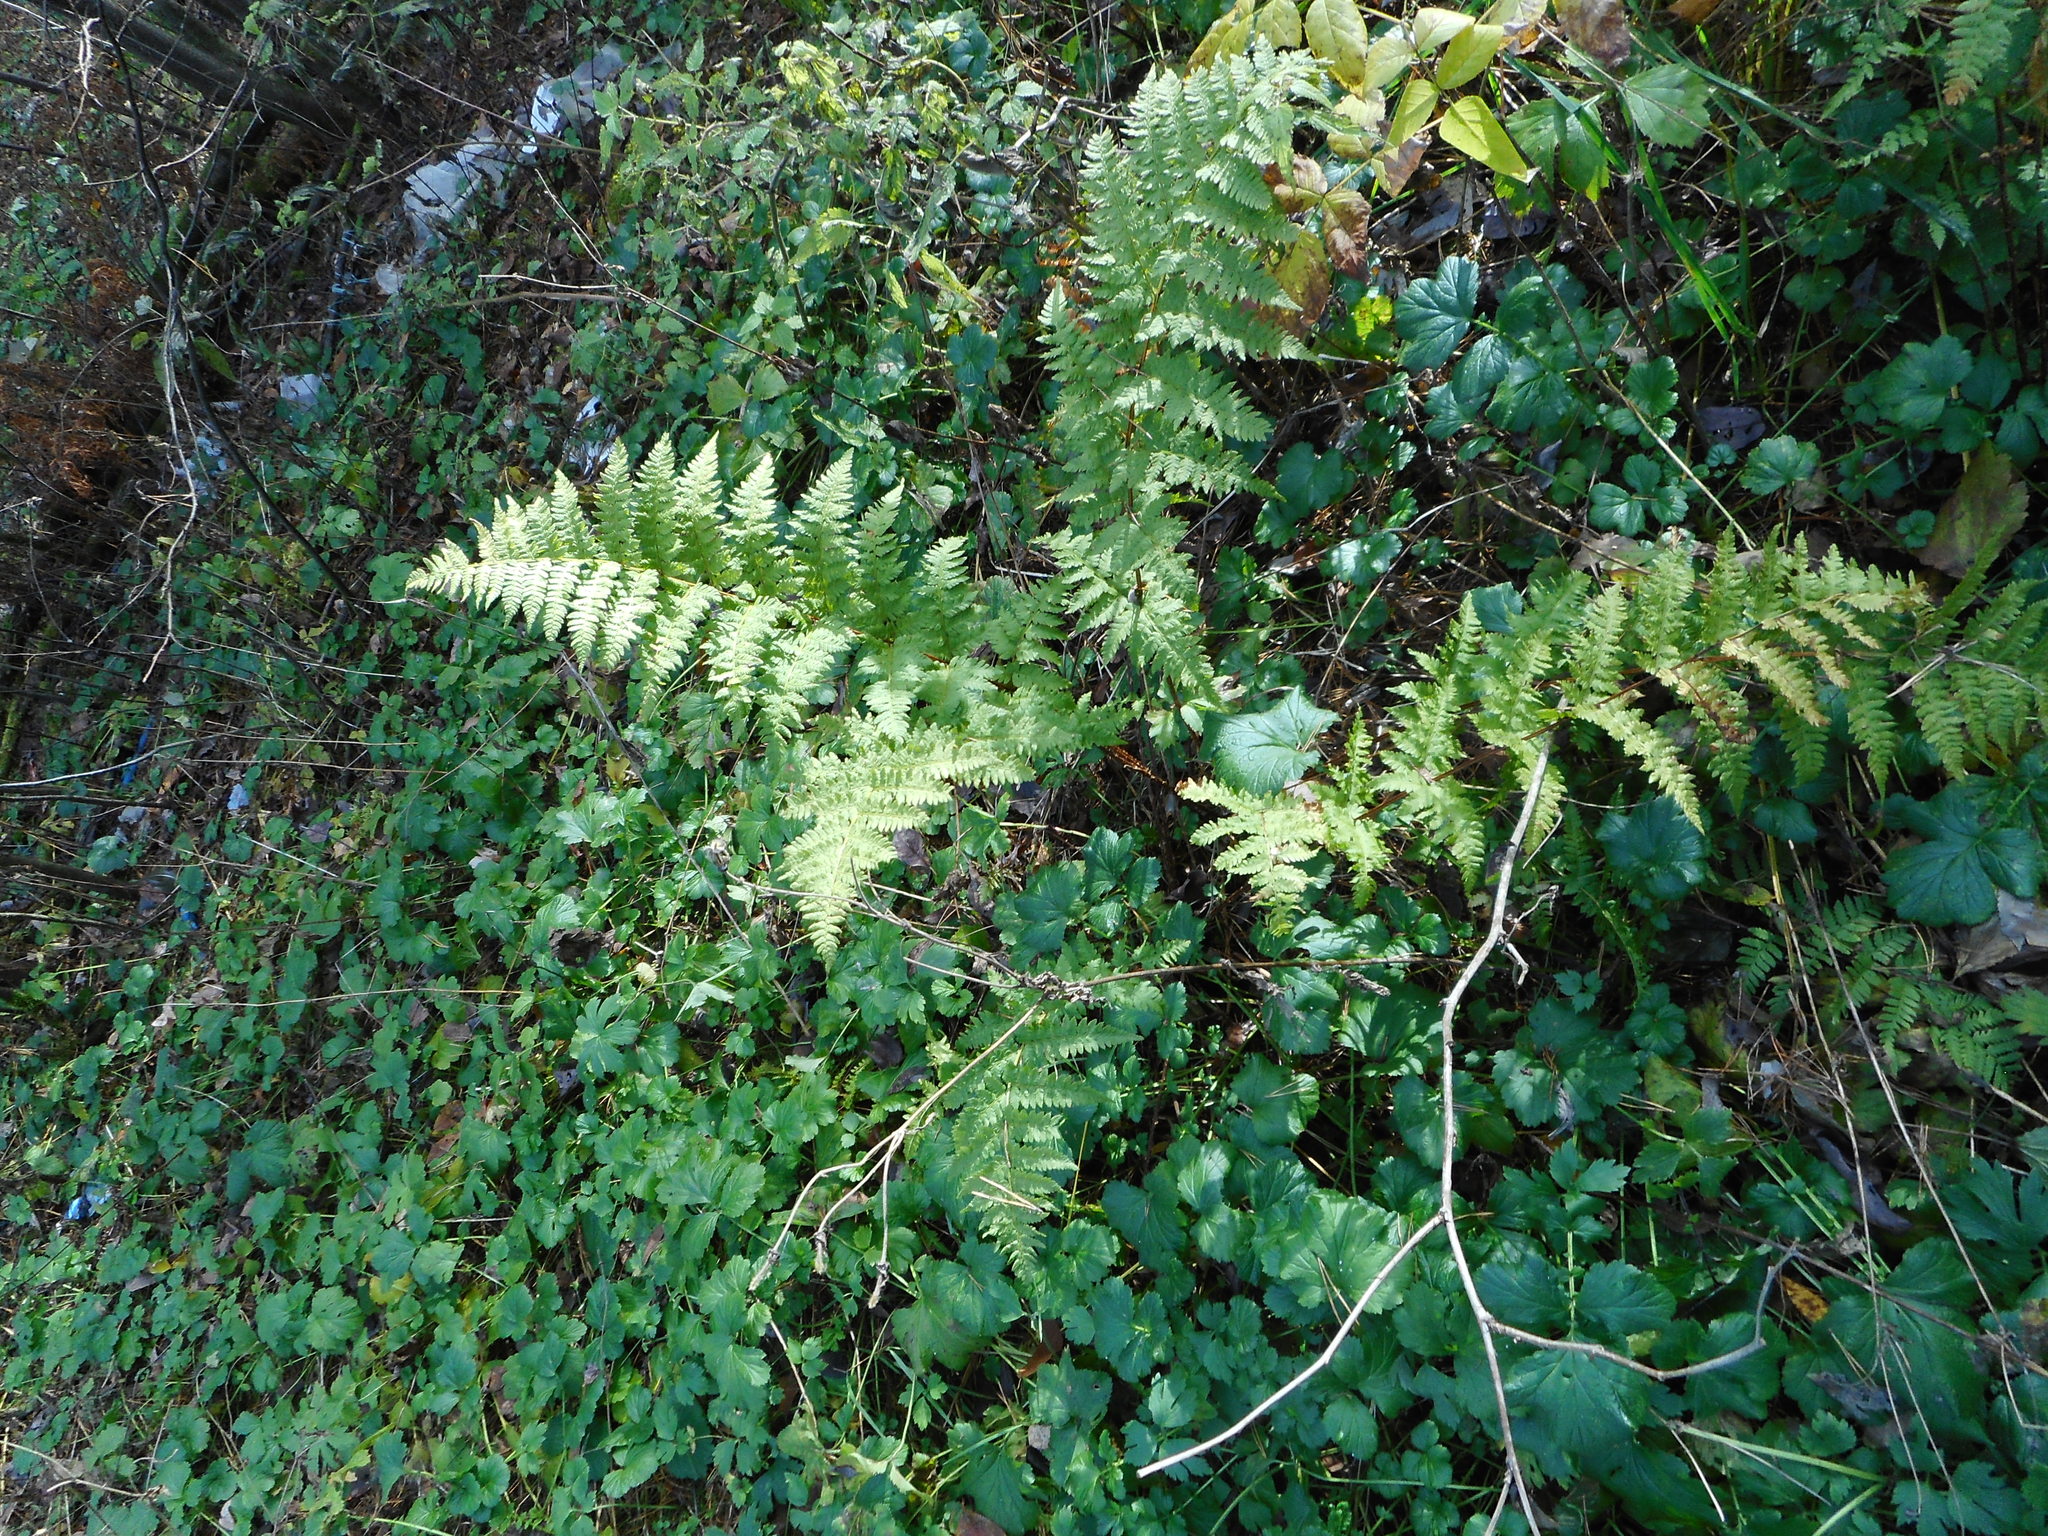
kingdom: Plantae
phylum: Tracheophyta
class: Polypodiopsida
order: Polypodiales
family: Dryopteridaceae
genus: Dryopteris
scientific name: Dryopteris carthusiana
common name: Narrow buckler-fern
